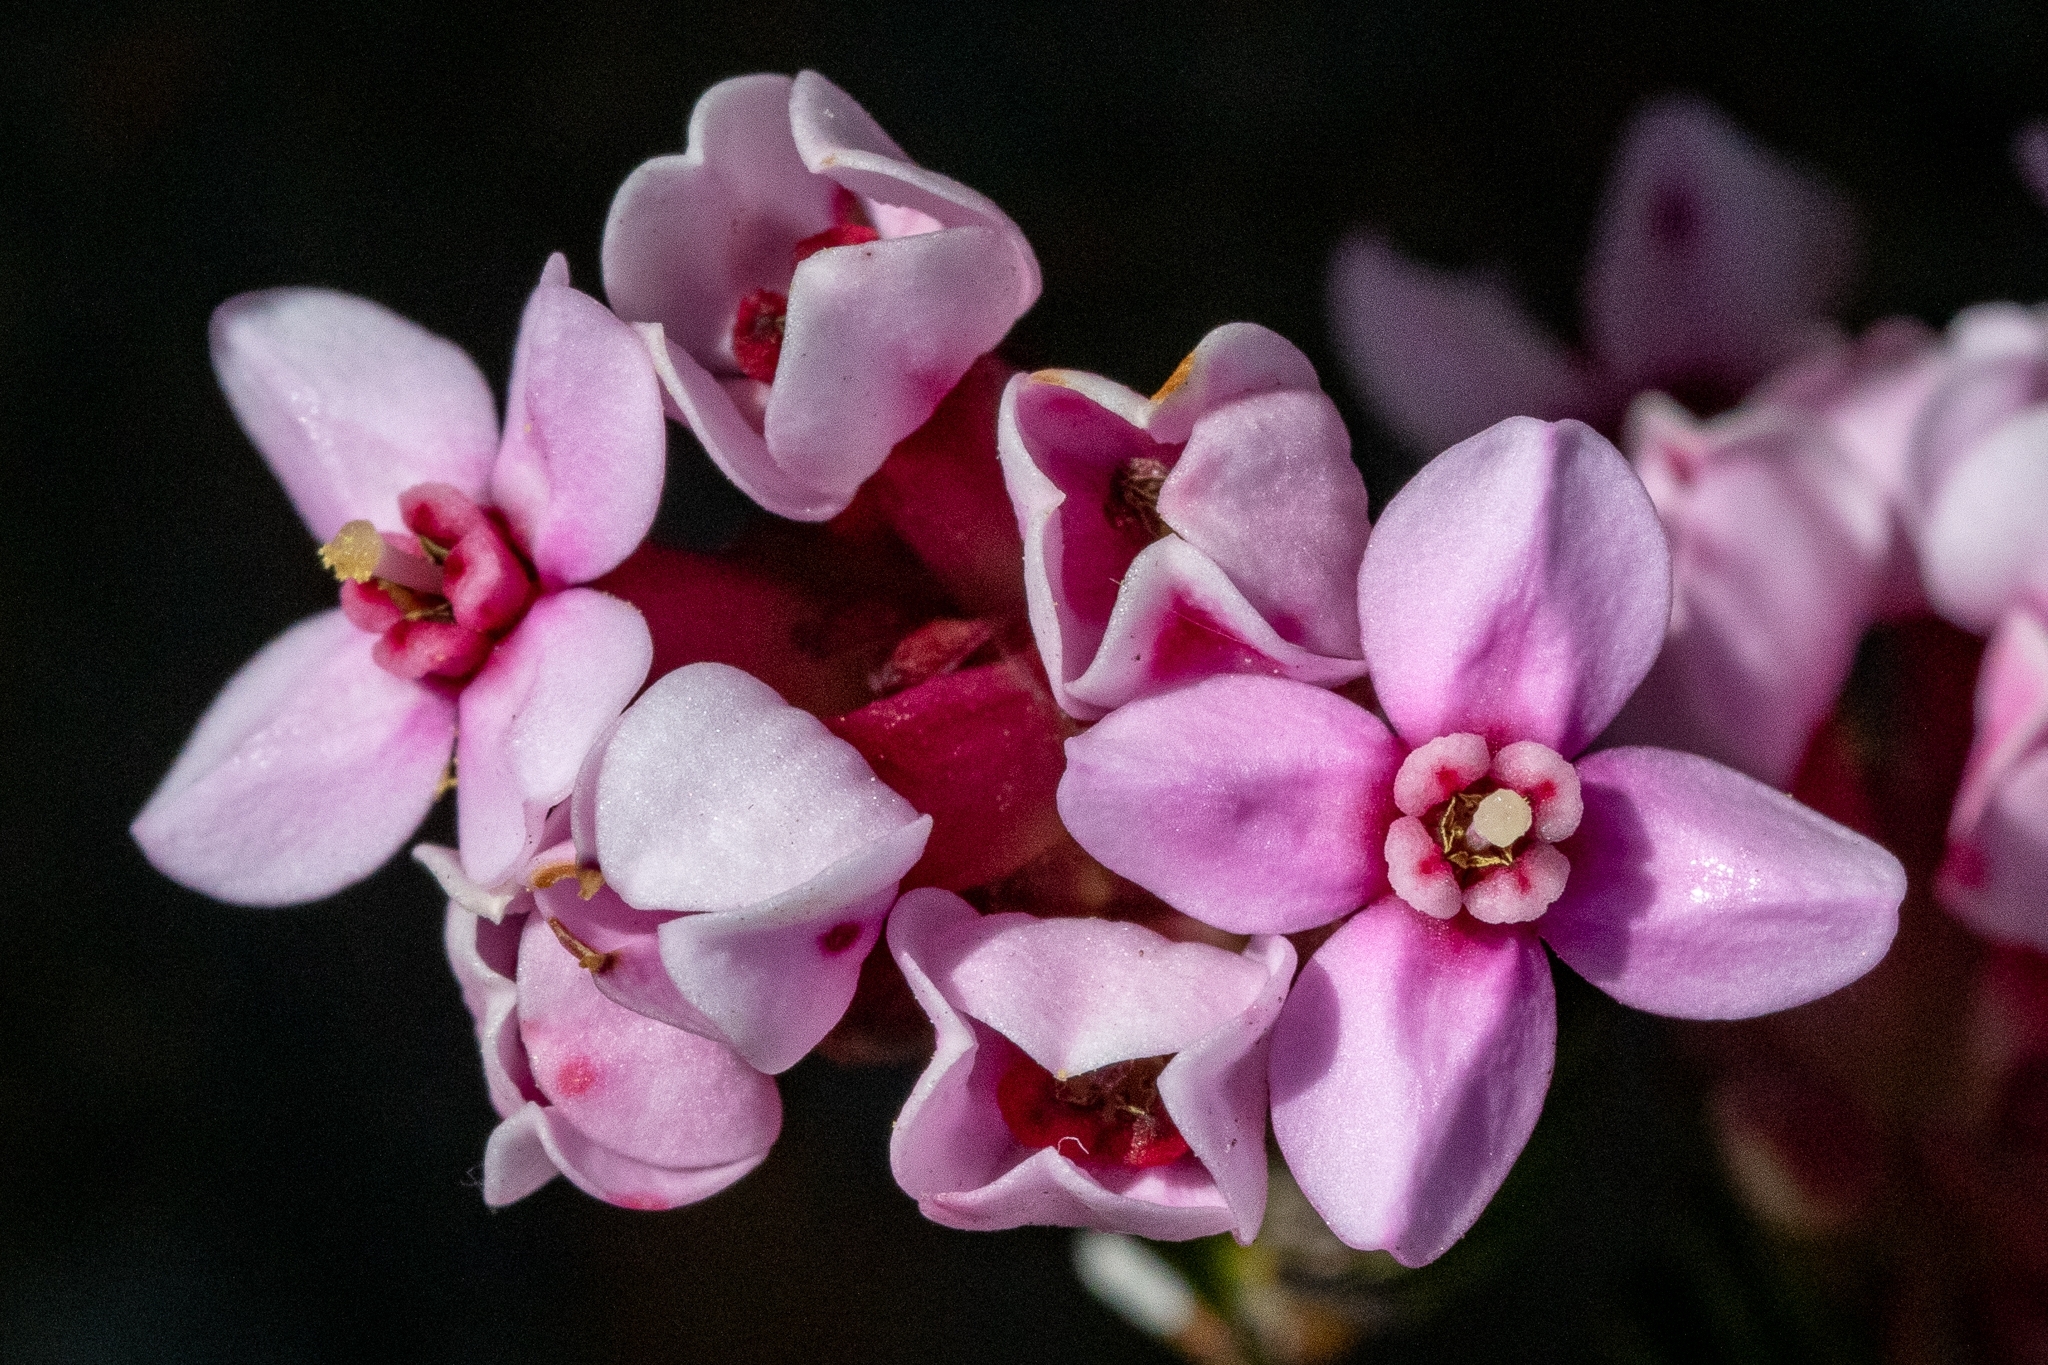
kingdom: Plantae
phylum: Tracheophyta
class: Magnoliopsida
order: Myrtales
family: Penaeaceae
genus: Sonderothamnus
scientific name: Sonderothamnus petraeus
